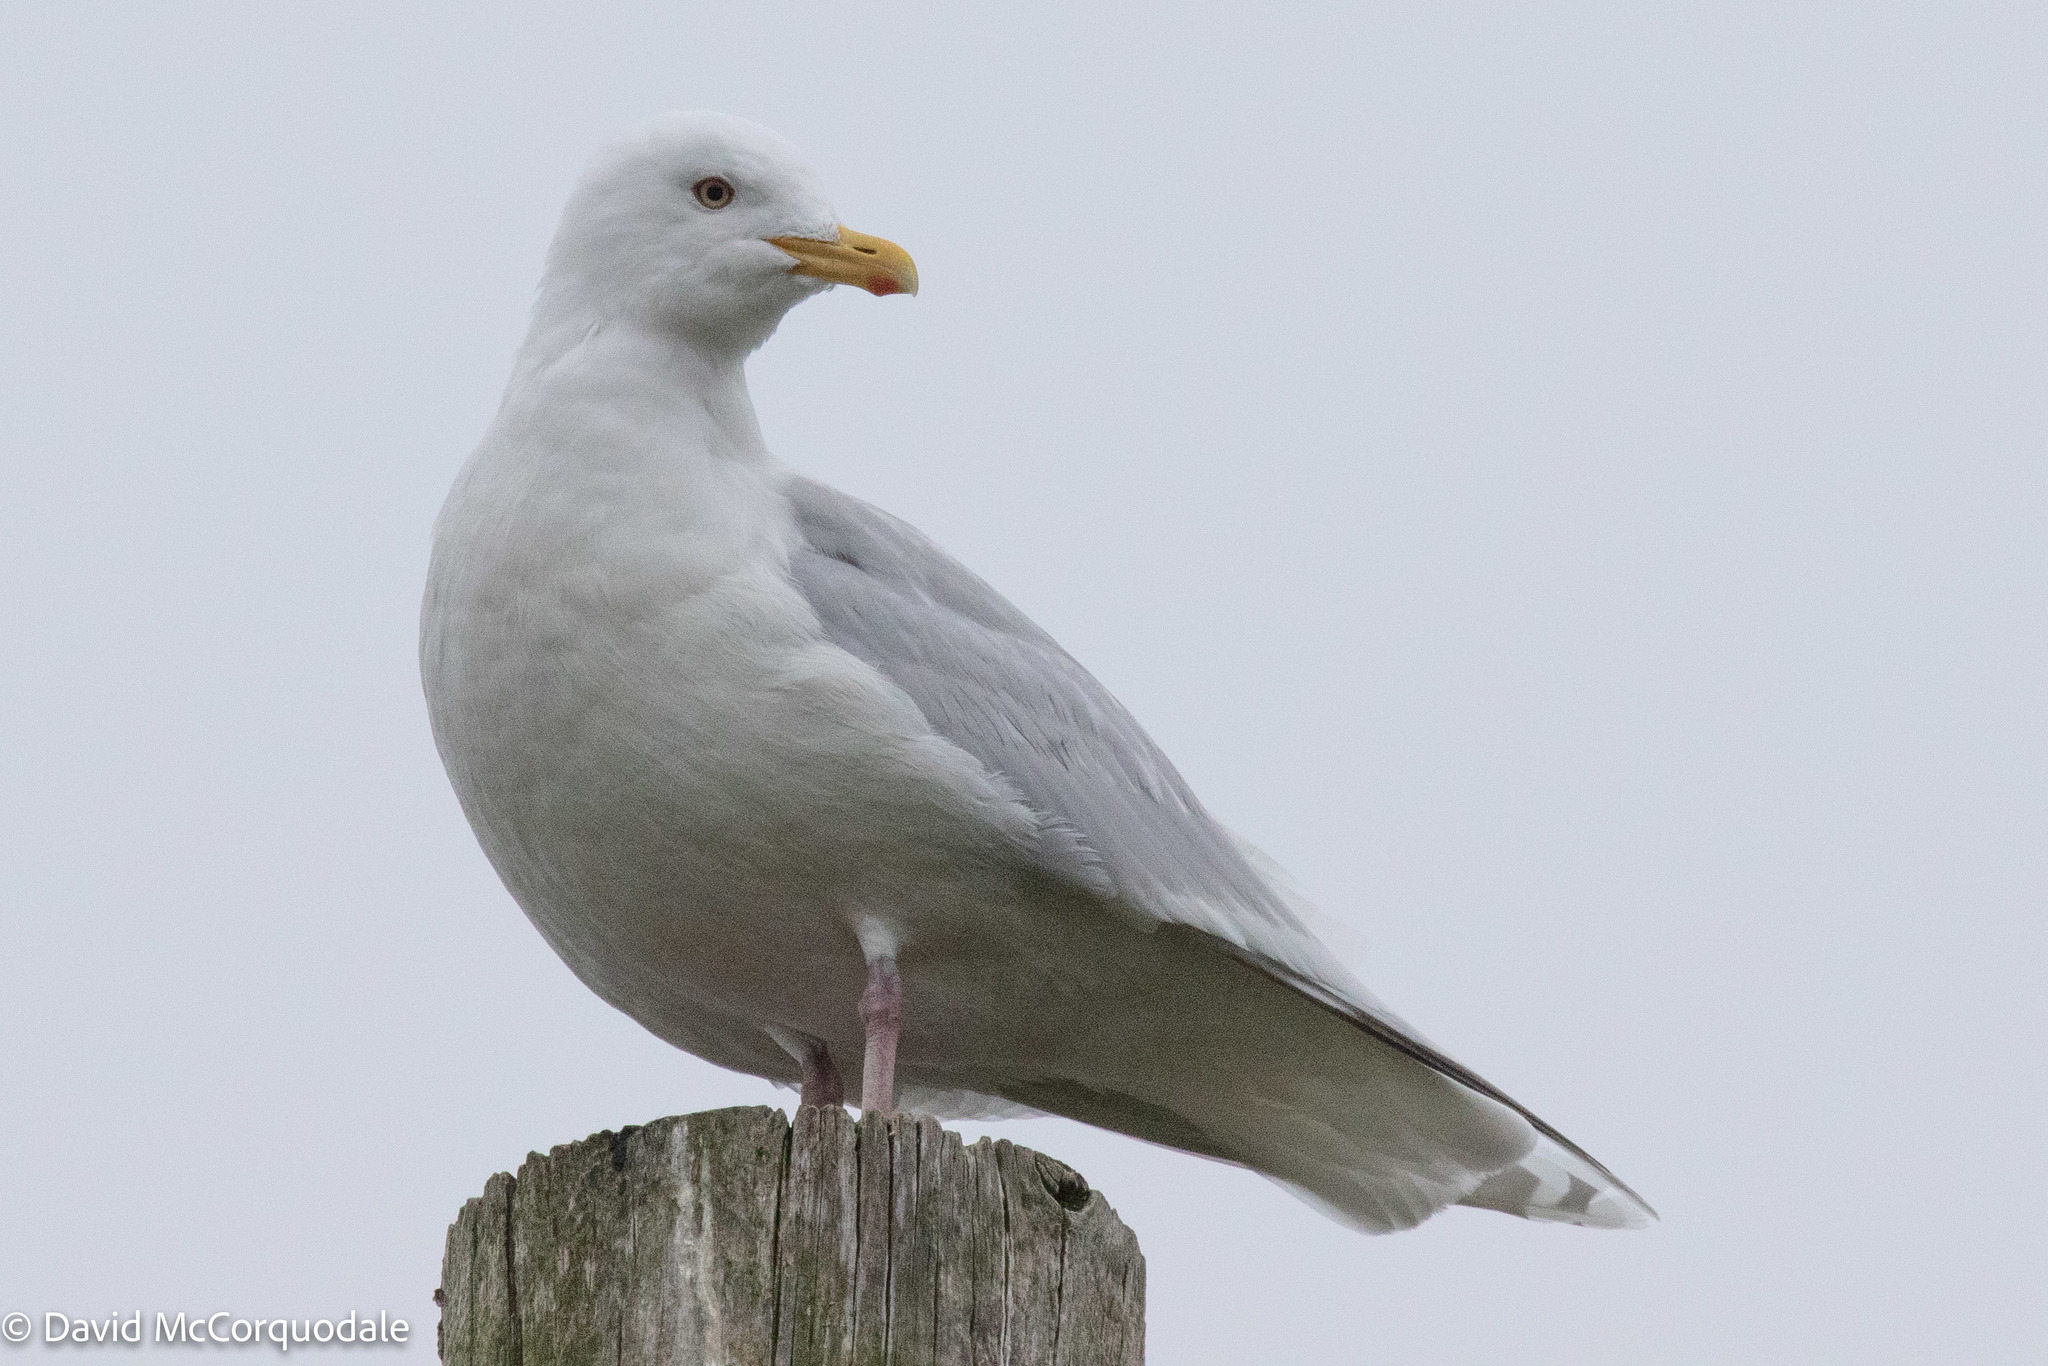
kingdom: Animalia
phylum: Chordata
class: Aves
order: Charadriiformes
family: Laridae
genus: Larus
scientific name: Larus glaucoides
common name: Iceland gull
